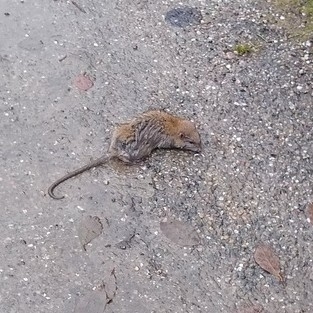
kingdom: Animalia
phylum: Chordata
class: Mammalia
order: Rodentia
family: Muridae
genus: Rattus
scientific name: Rattus norvegicus
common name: Brown rat
